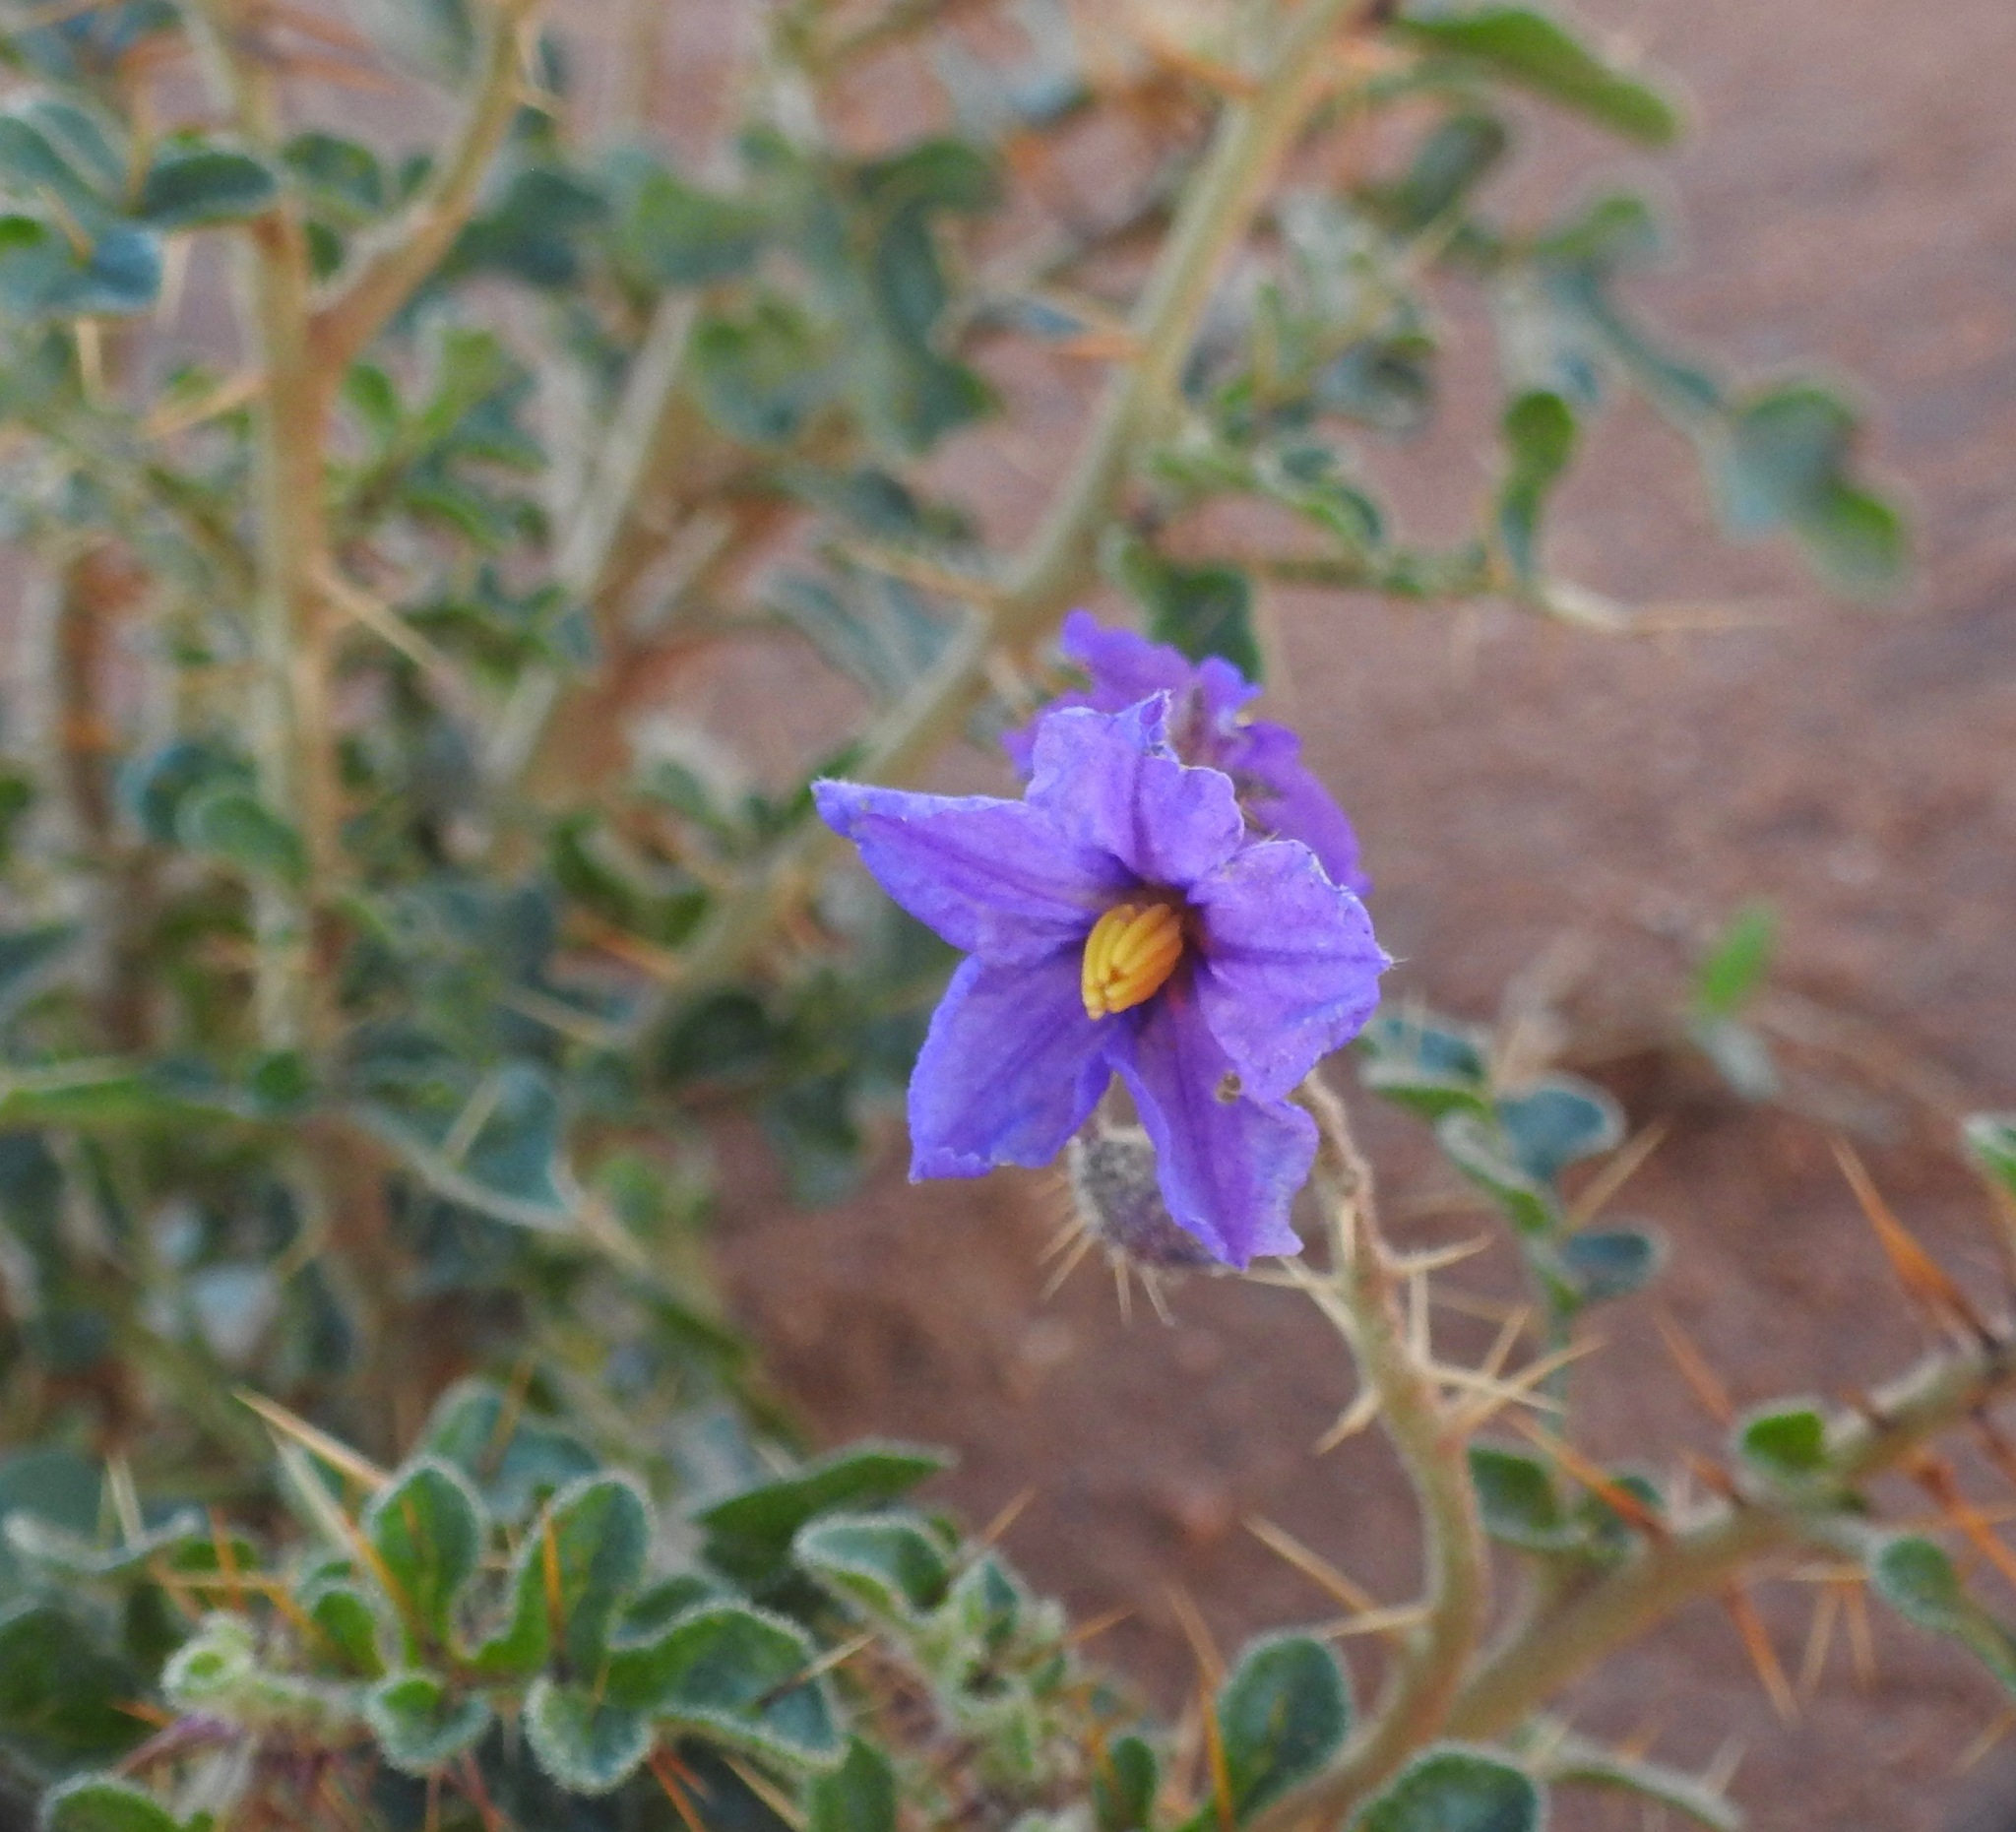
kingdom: Plantae
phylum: Tracheophyta
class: Magnoliopsida
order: Solanales
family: Solanaceae
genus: Solanum
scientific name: Solanum diversiflorum
